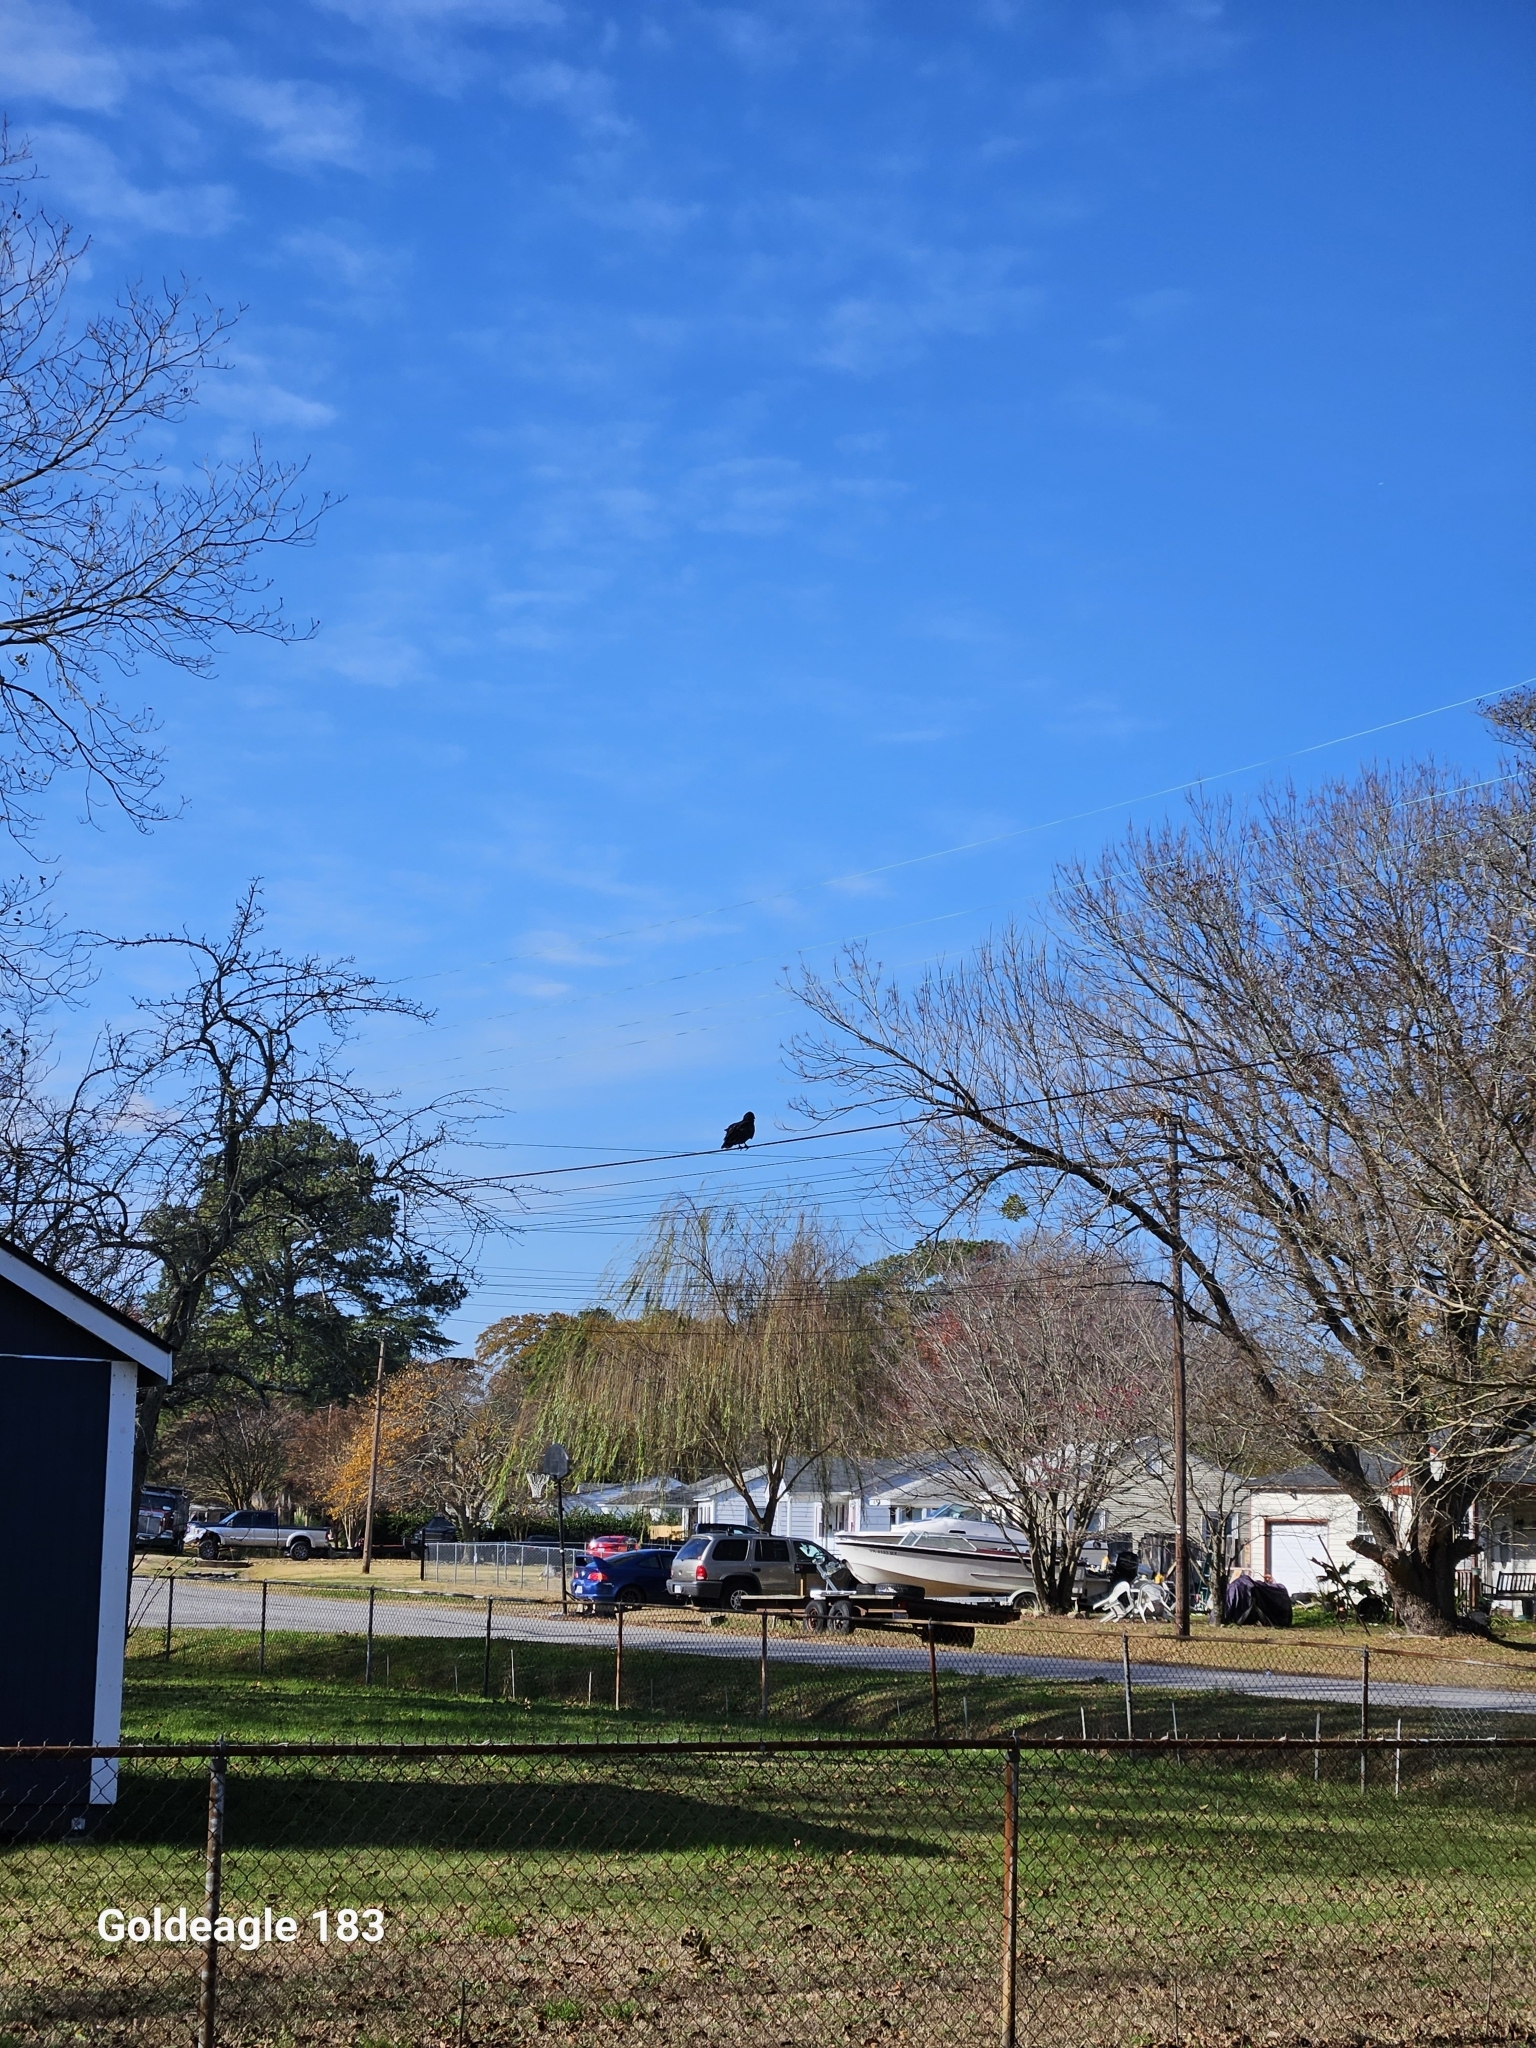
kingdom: Animalia
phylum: Chordata
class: Aves
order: Accipitriformes
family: Cathartidae
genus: Cathartes
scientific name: Cathartes aura
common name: Turkey vulture
